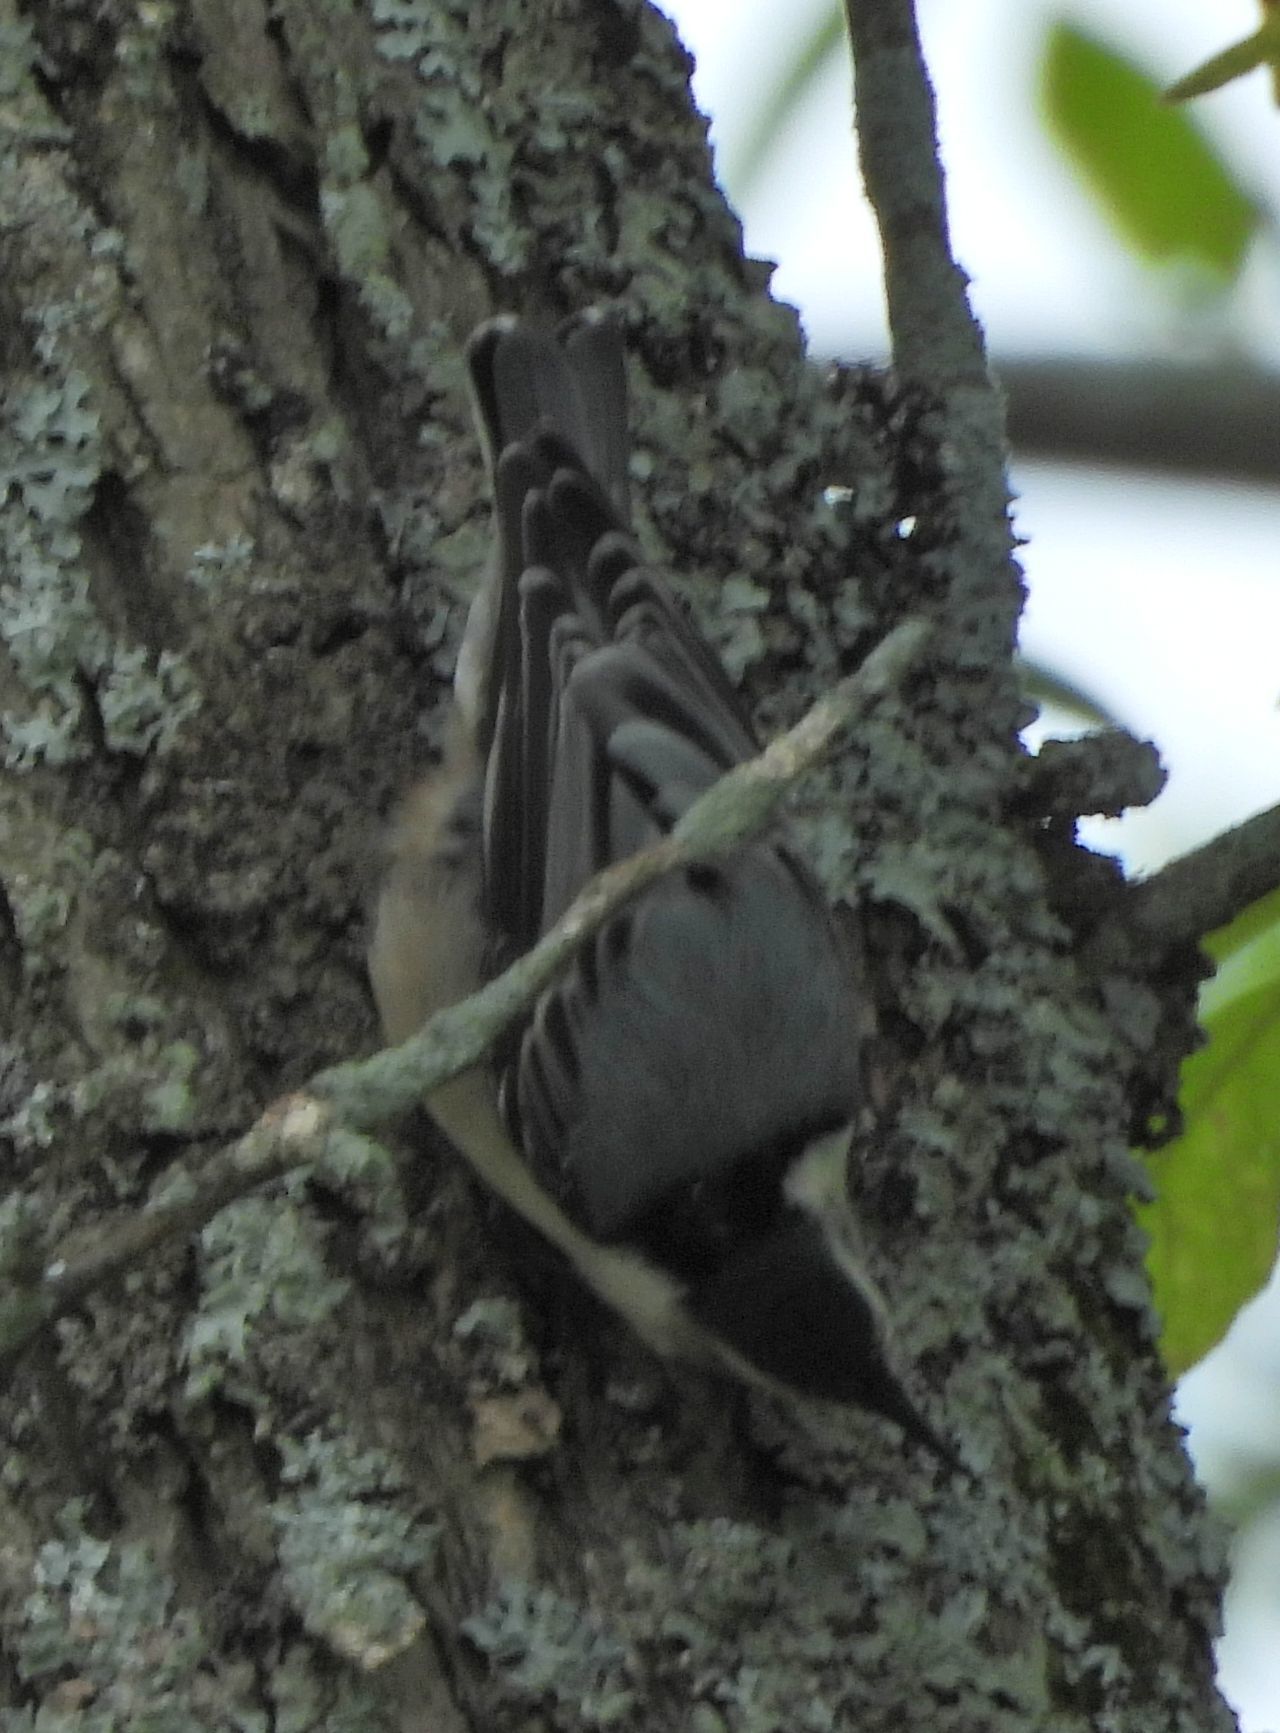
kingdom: Animalia
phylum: Chordata
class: Aves
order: Passeriformes
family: Sittidae
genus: Sitta
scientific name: Sitta carolinensis
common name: White-breasted nuthatch
